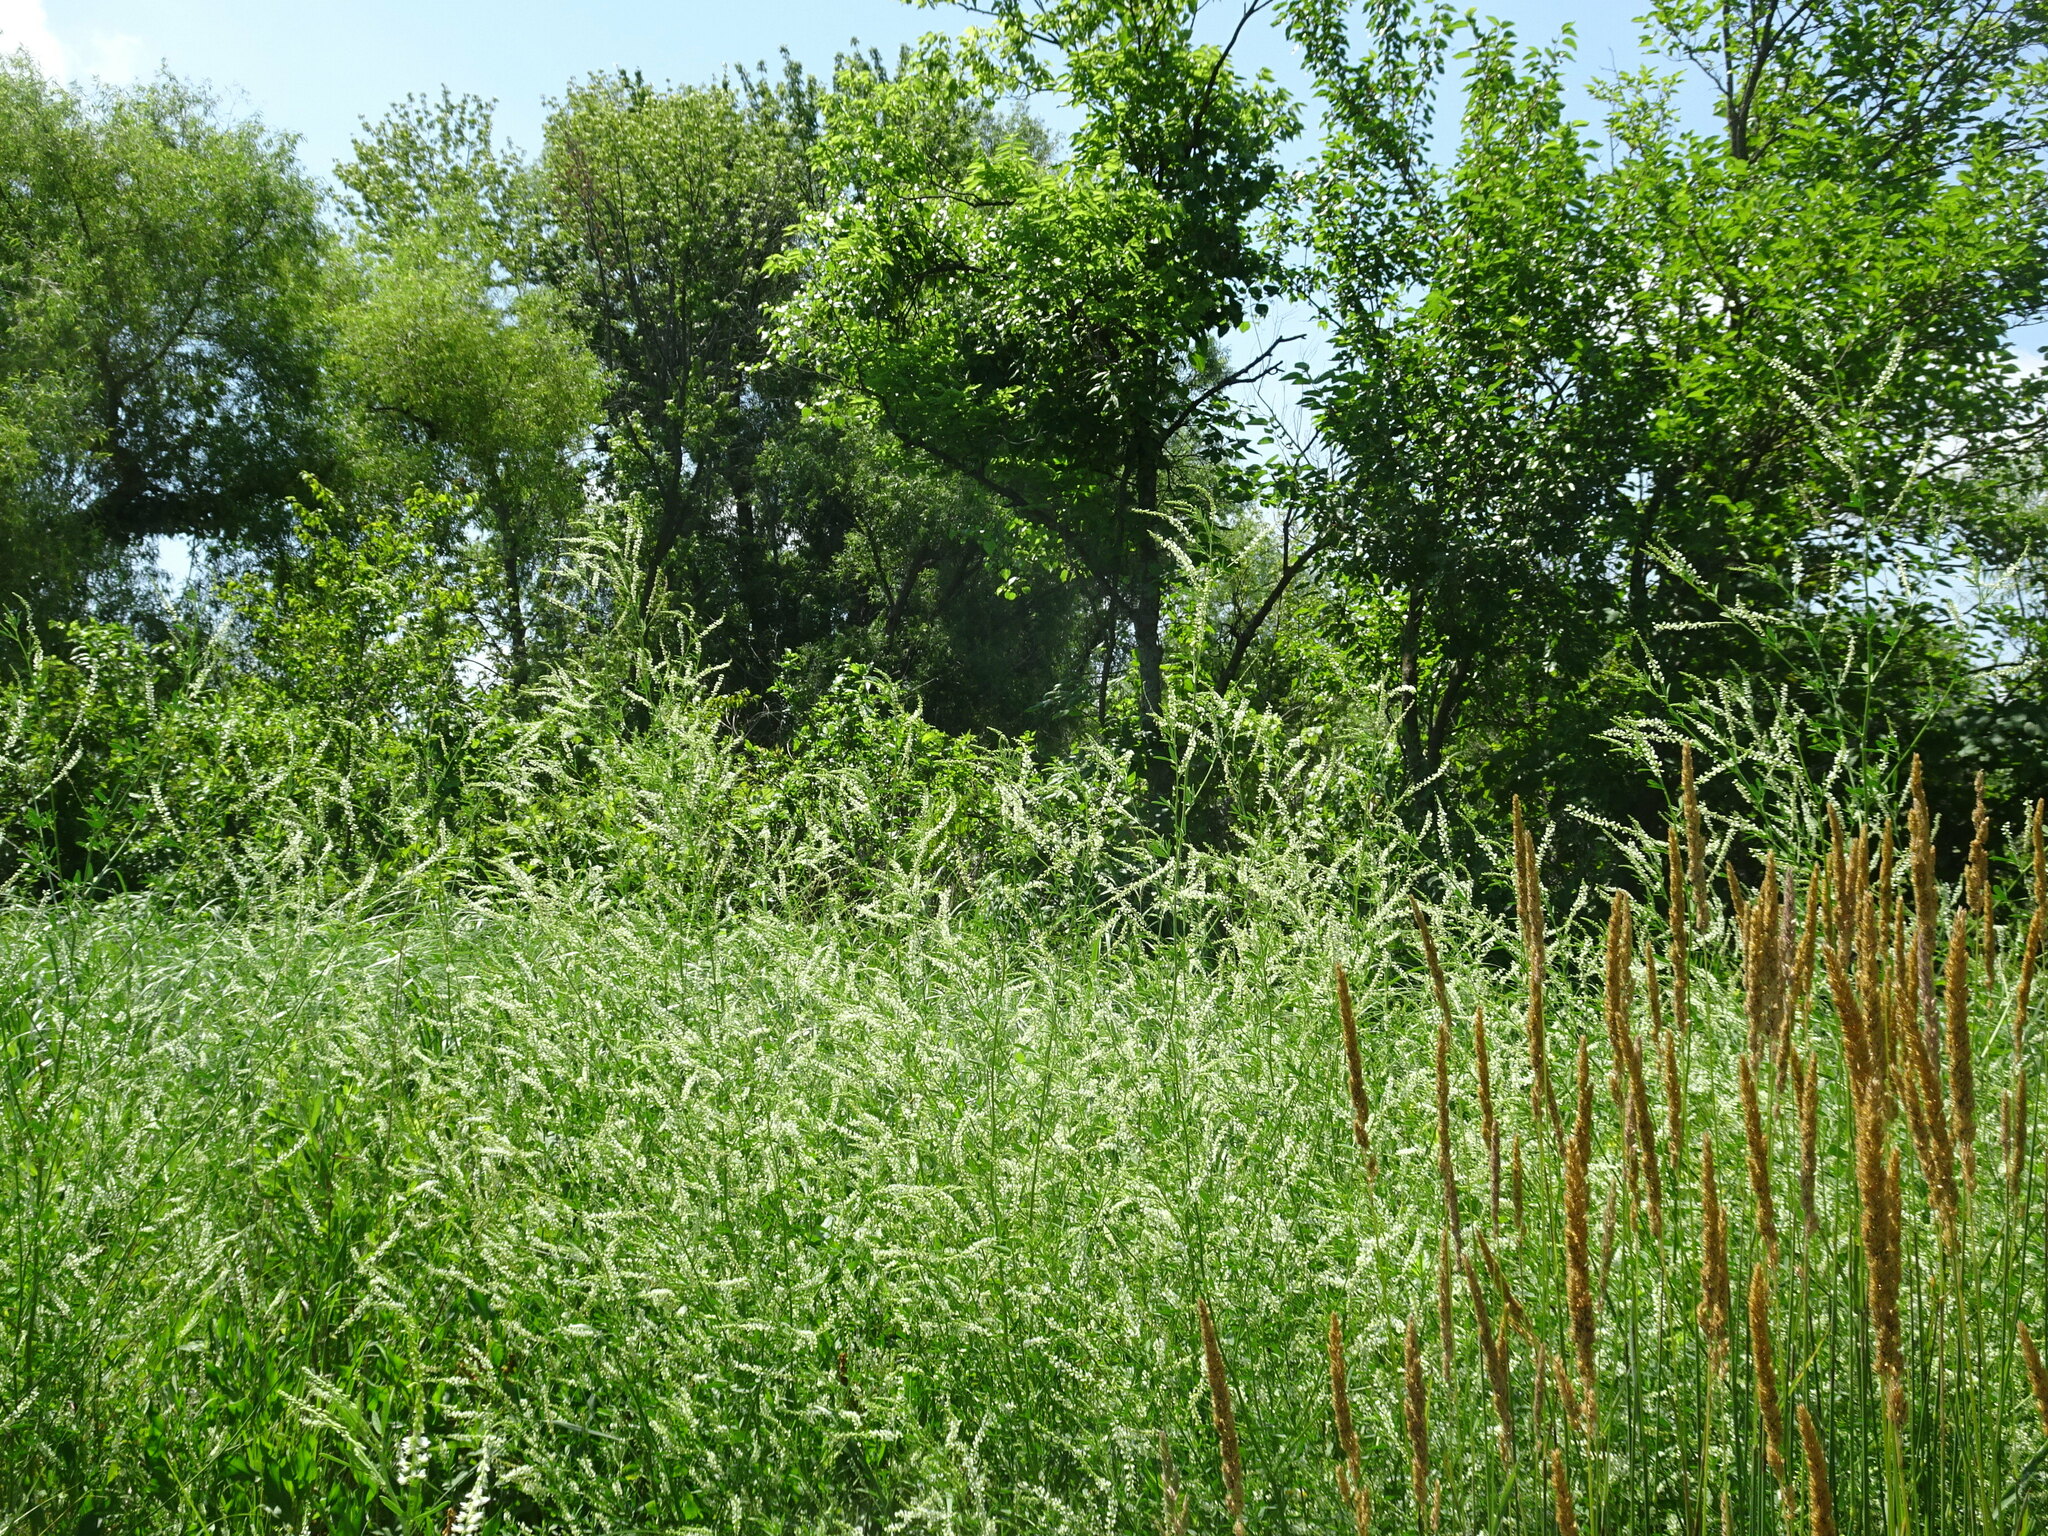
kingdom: Plantae
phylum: Tracheophyta
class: Magnoliopsida
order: Fabales
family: Fabaceae
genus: Melilotus
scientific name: Melilotus albus
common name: White melilot
